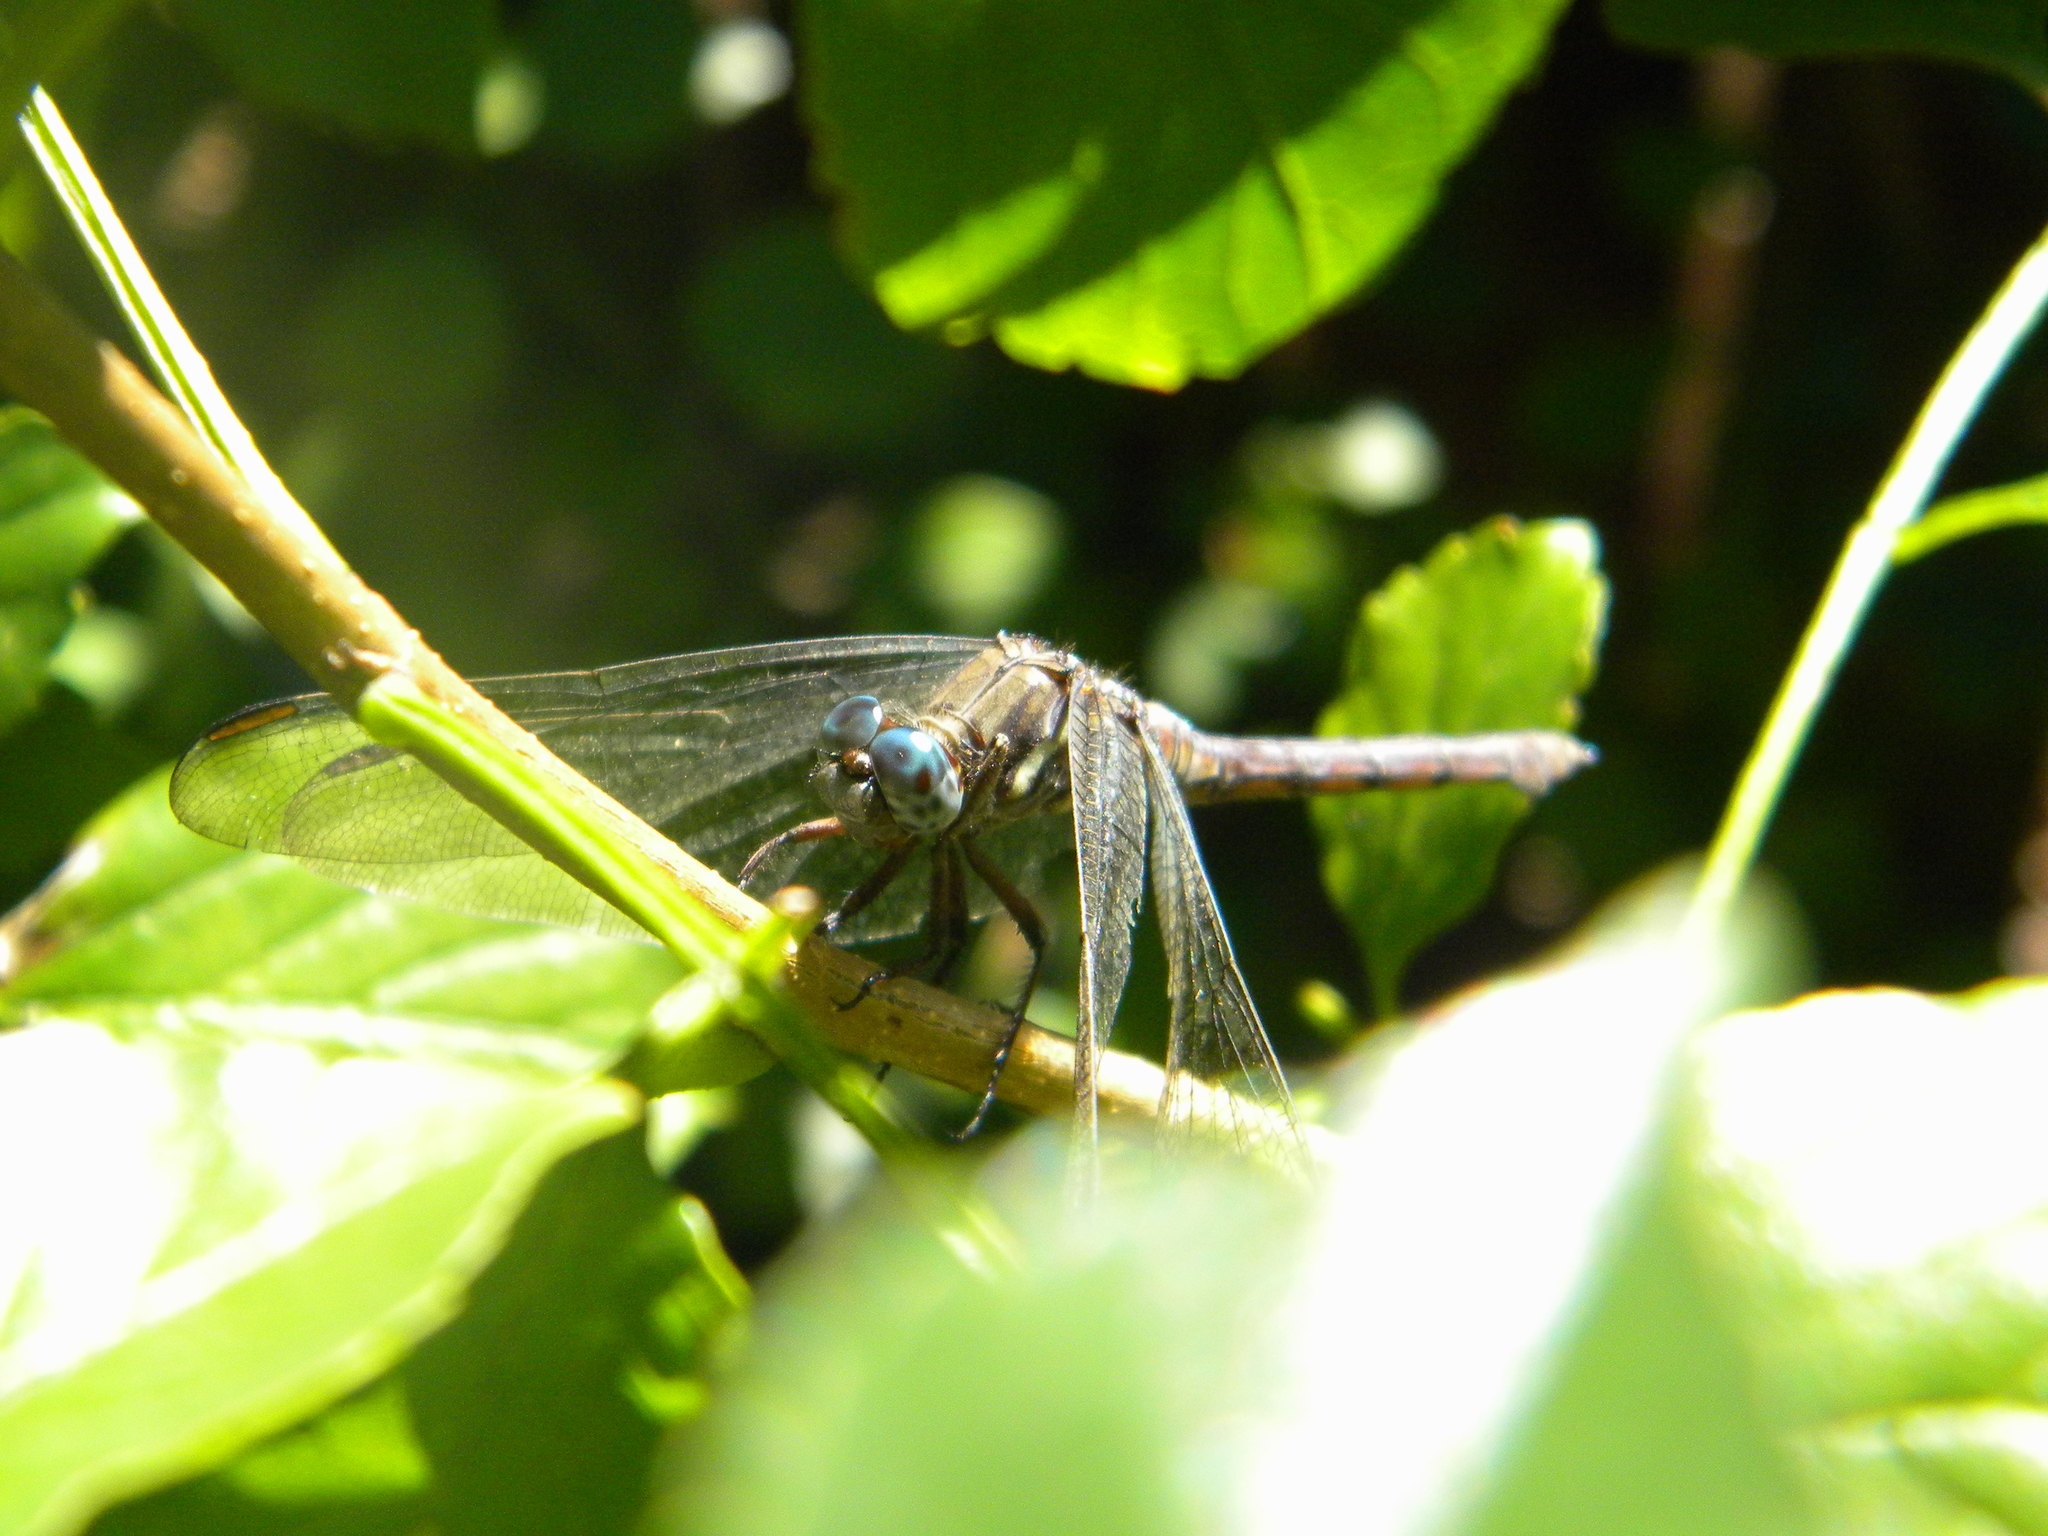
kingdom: Animalia
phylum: Arthropoda
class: Insecta
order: Odonata
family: Libellulidae
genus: Orthetrum
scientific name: Orthetrum julia
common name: Julia skimmer
